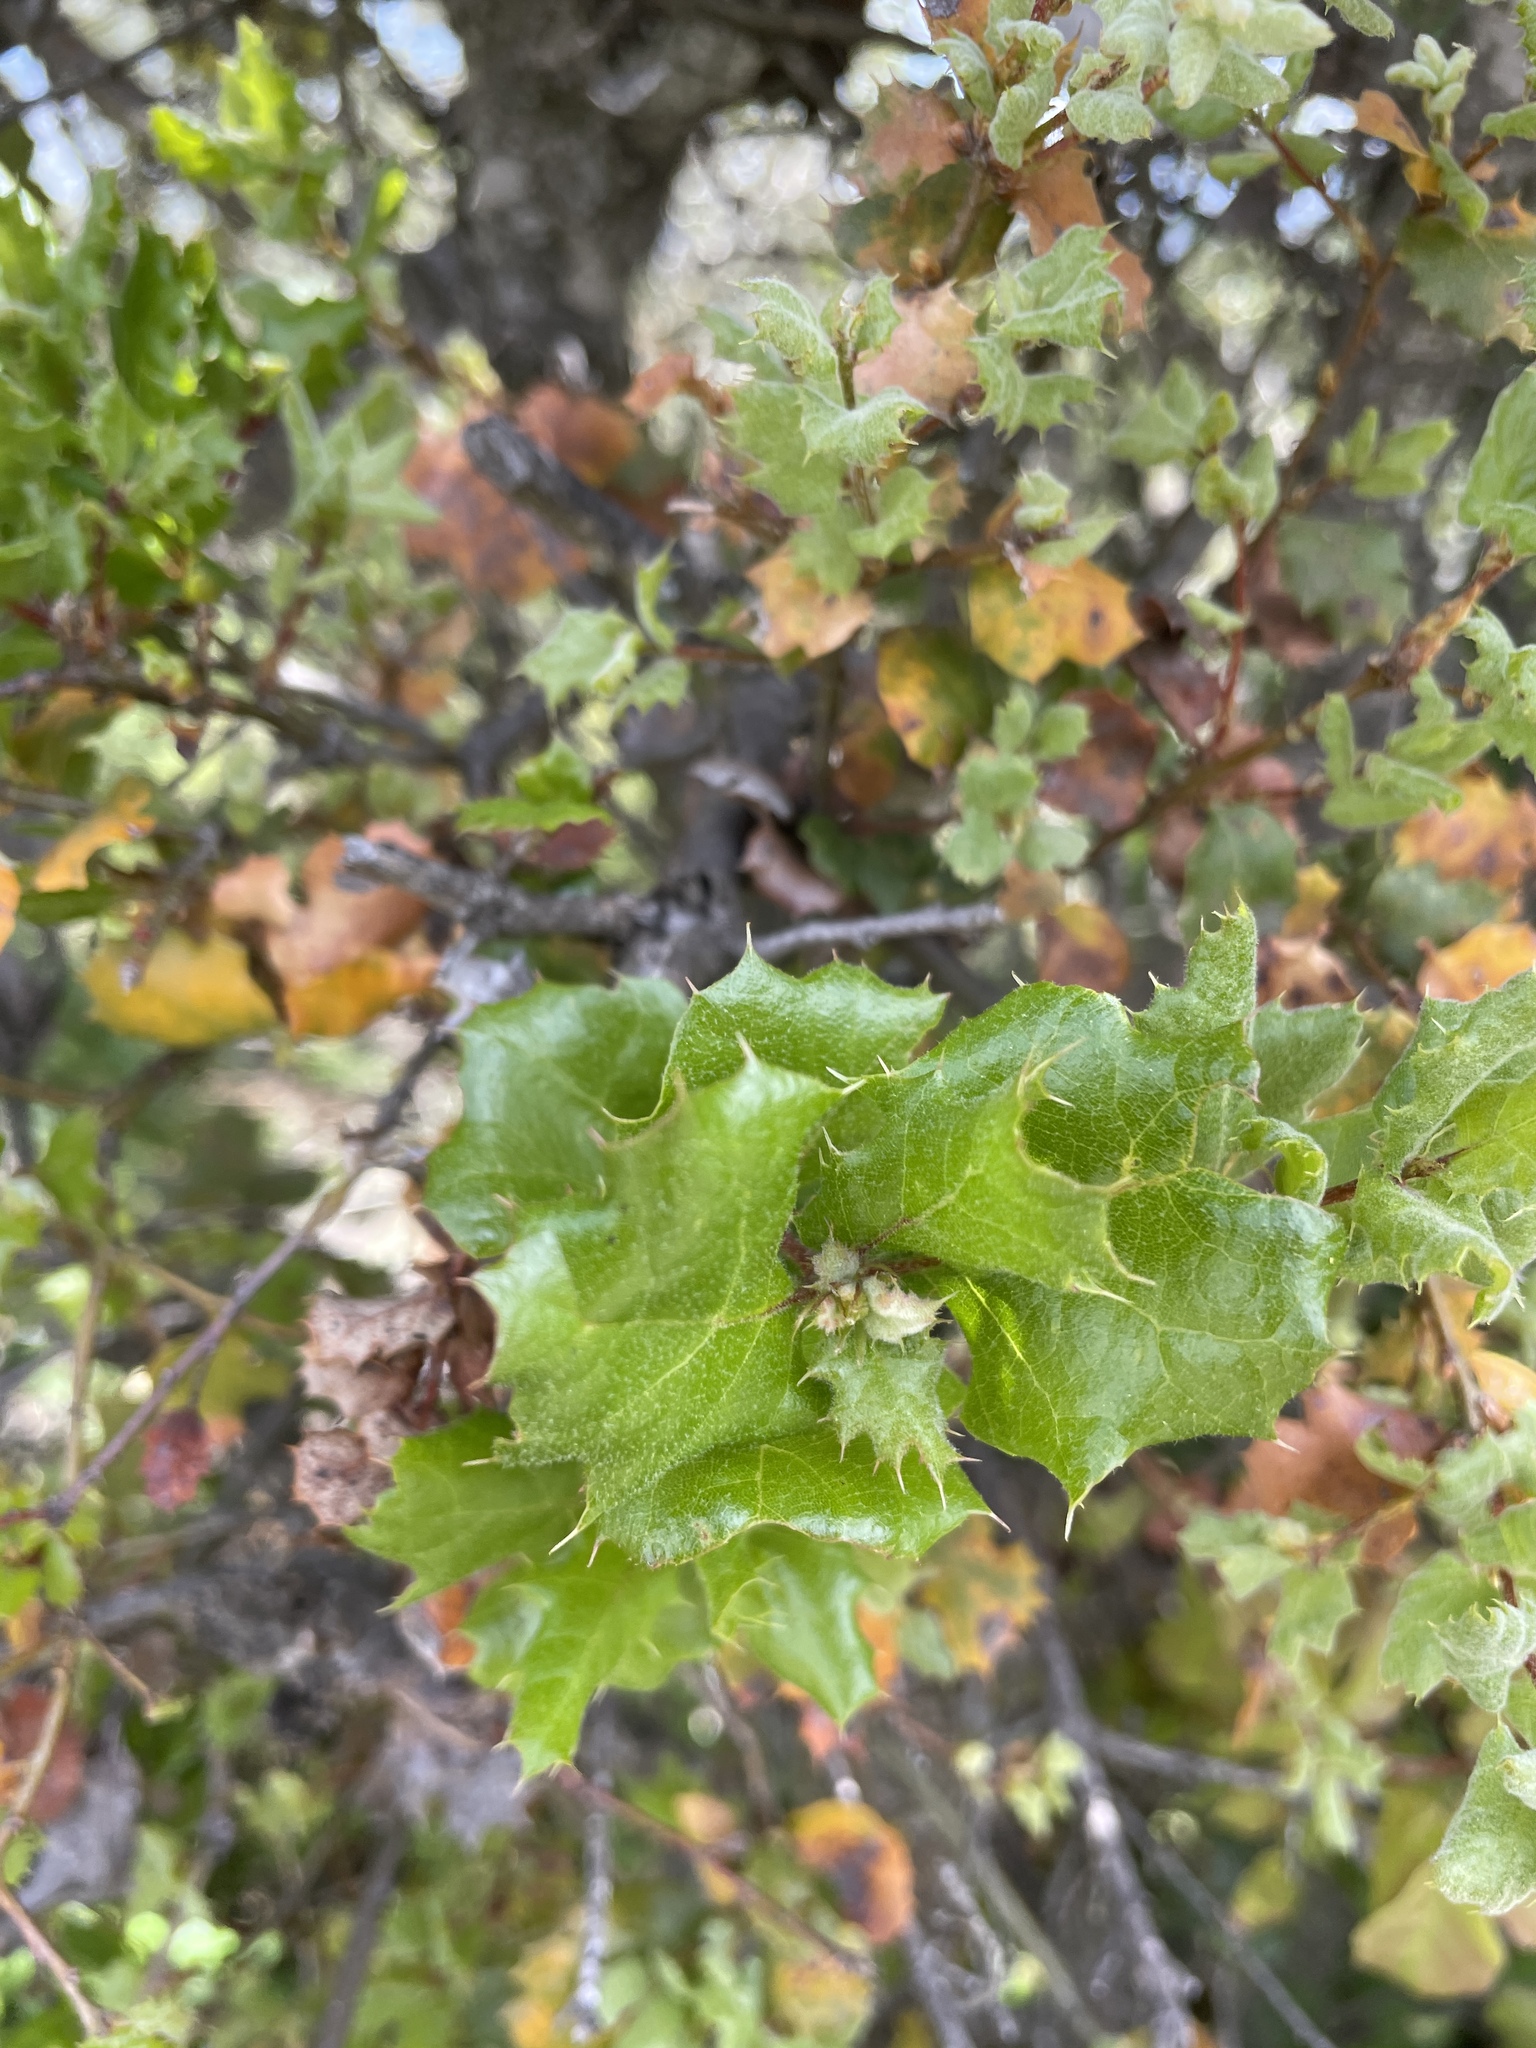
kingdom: Plantae
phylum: Tracheophyta
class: Magnoliopsida
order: Fagales
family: Fagaceae
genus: Quercus
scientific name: Quercus agrifolia
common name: California live oak
